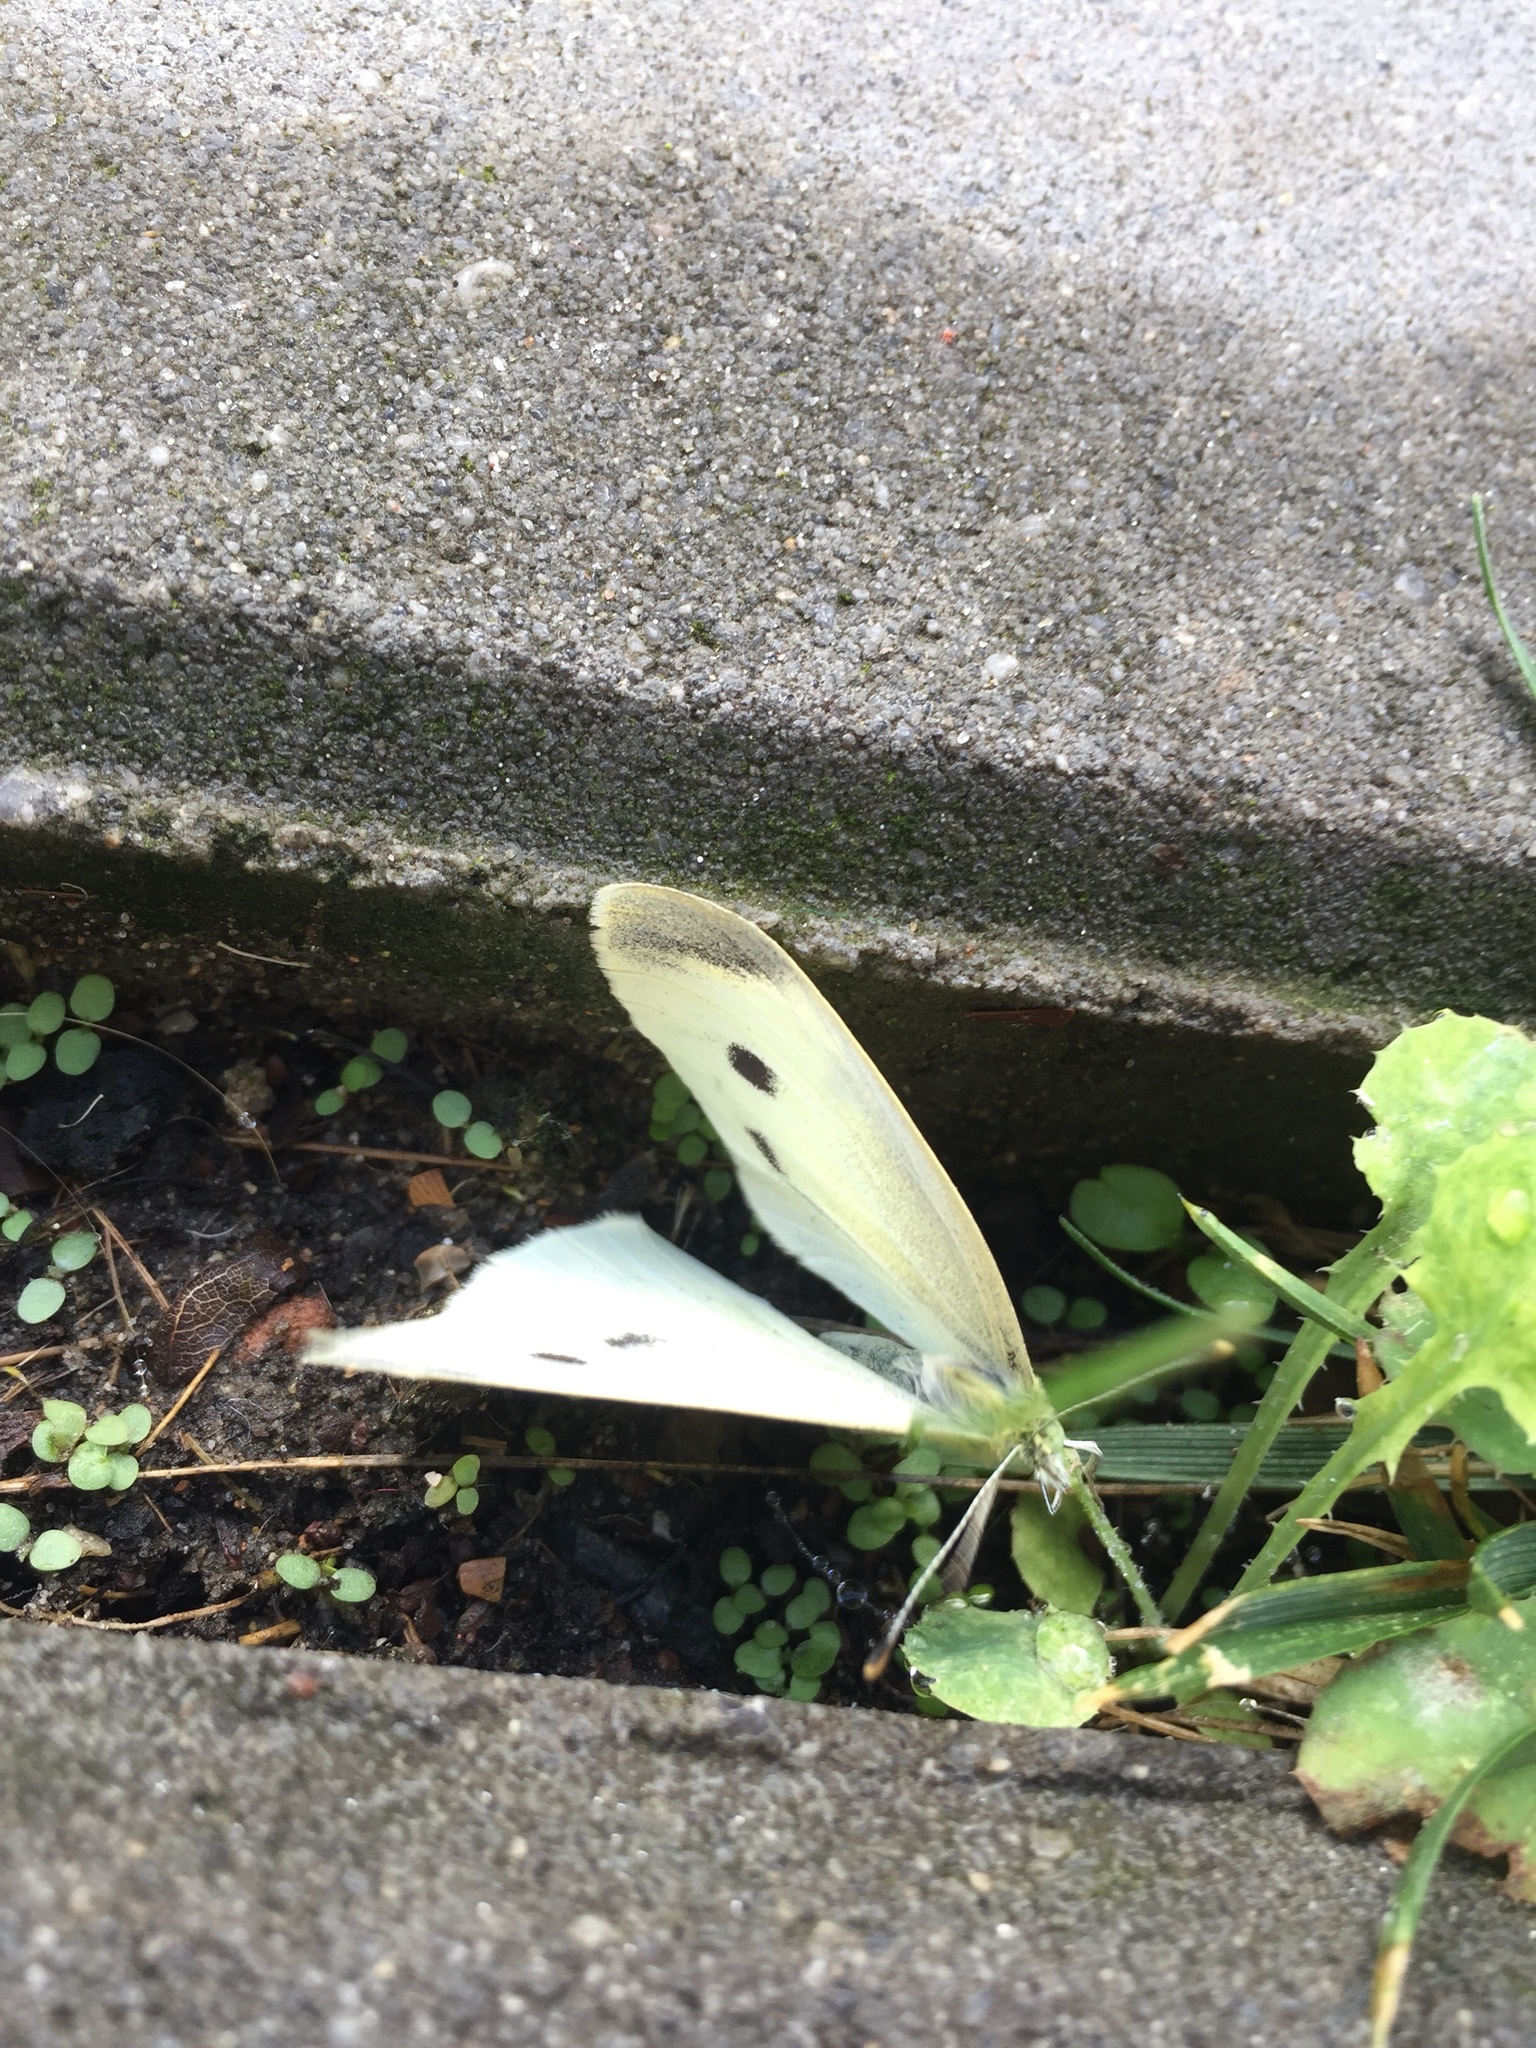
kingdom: Animalia
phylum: Arthropoda
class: Insecta
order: Lepidoptera
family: Pieridae
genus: Pieris
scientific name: Pieris rapae
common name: Small white
